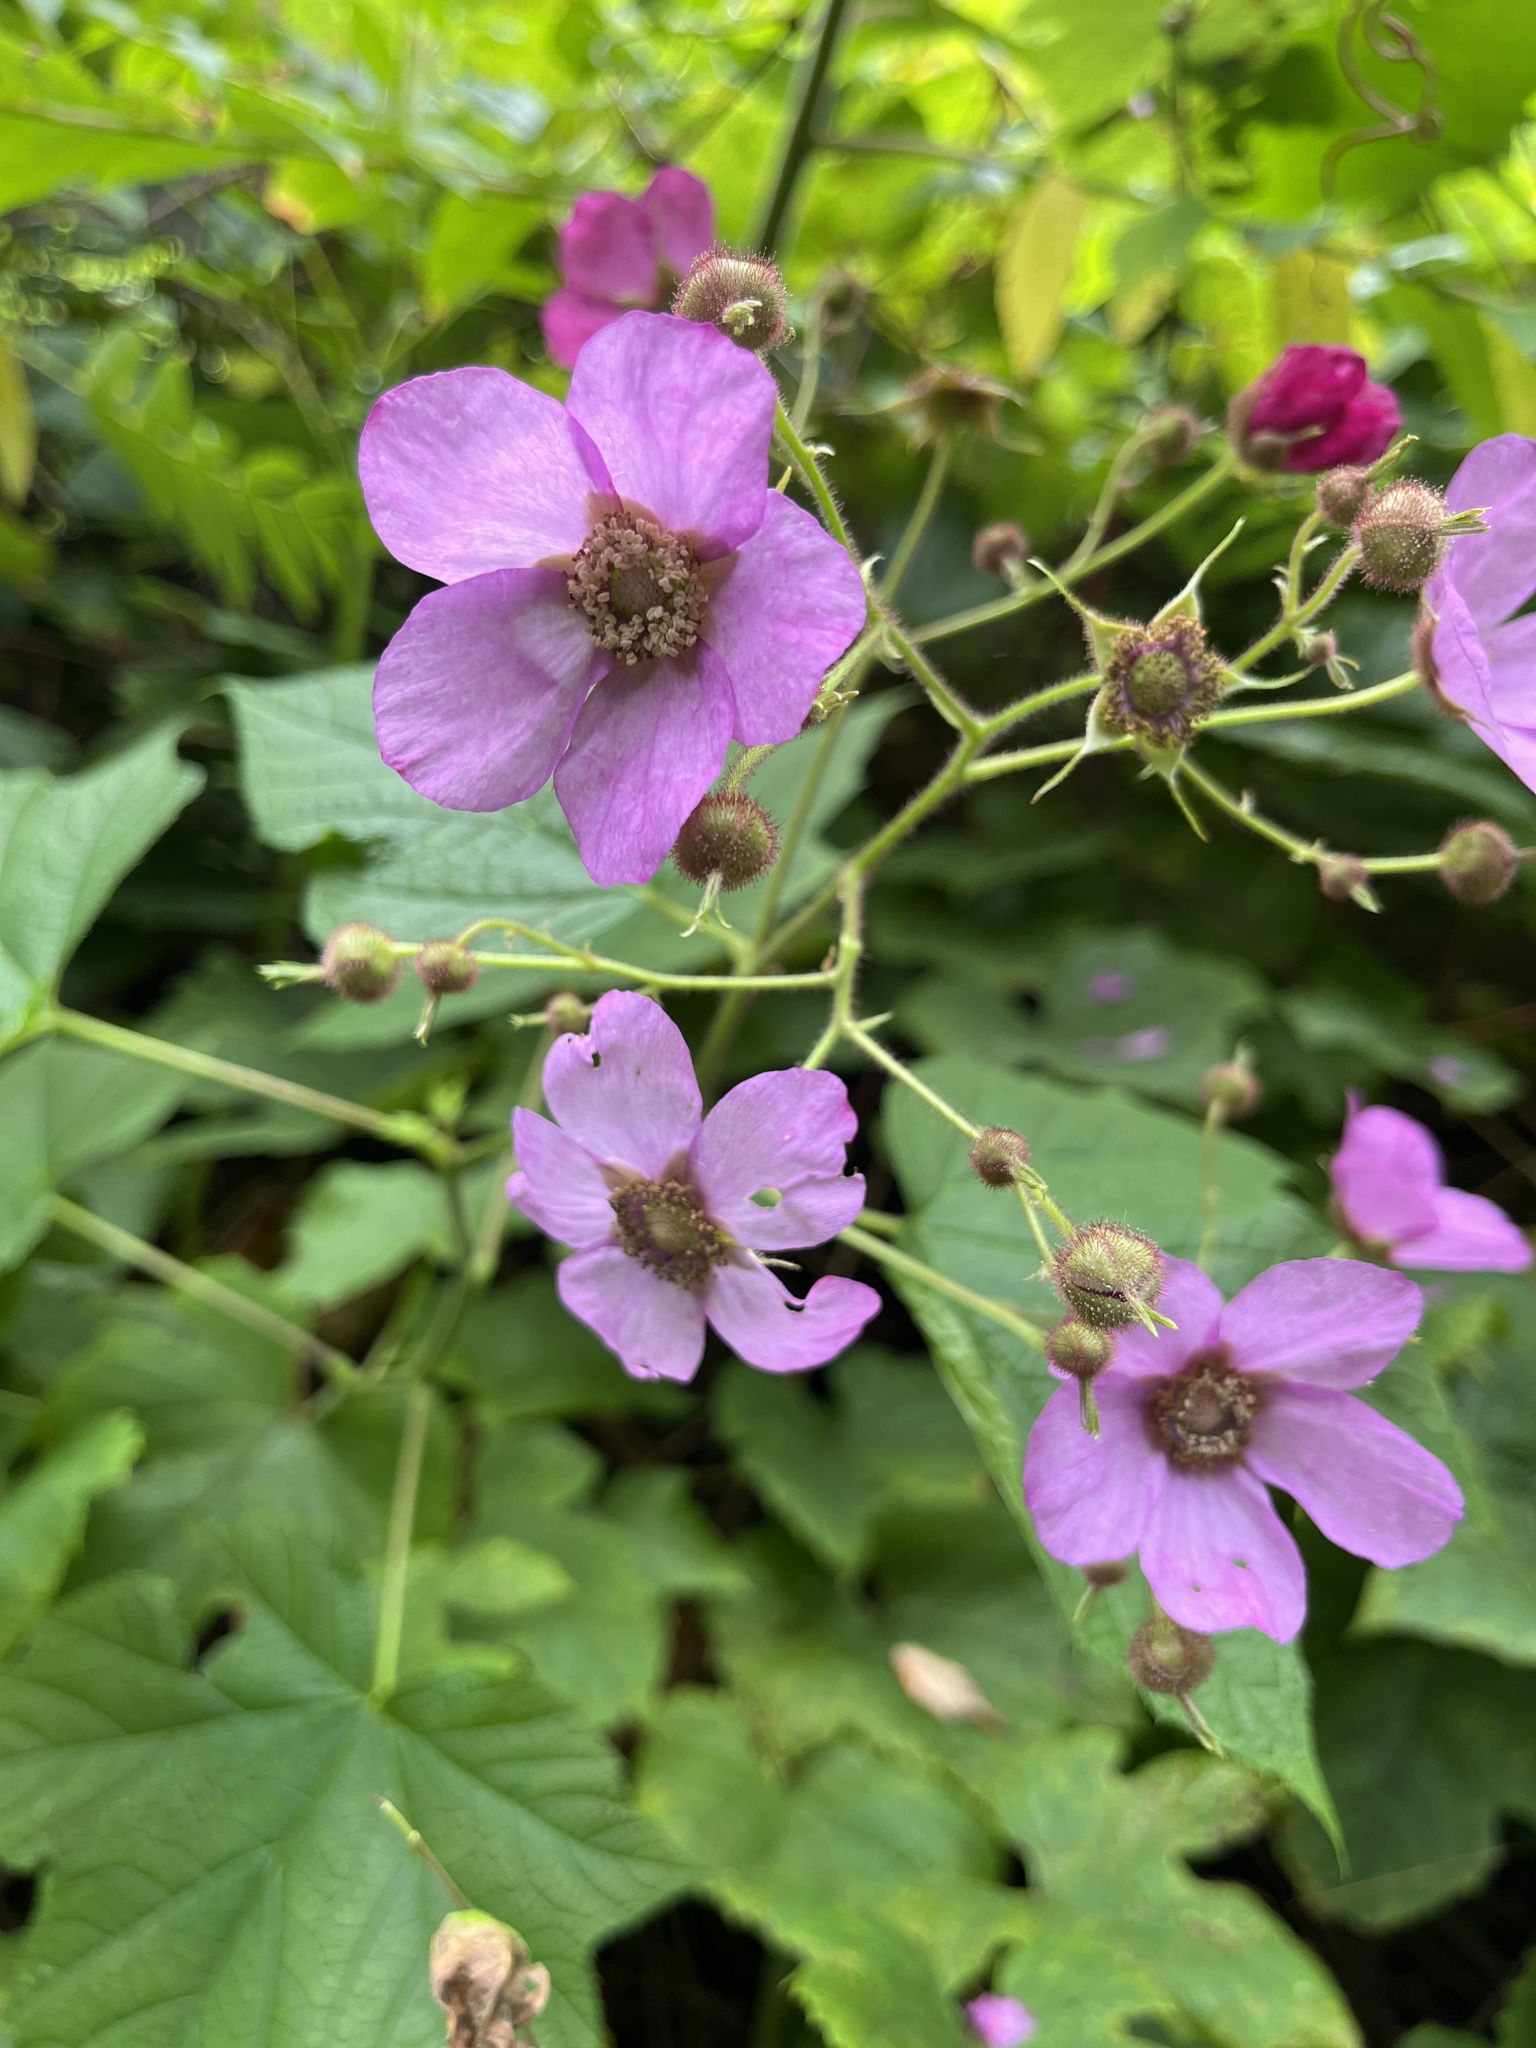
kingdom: Plantae
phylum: Tracheophyta
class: Magnoliopsida
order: Rosales
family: Rosaceae
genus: Rubus
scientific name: Rubus odoratus
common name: Purple-flowered raspberry
